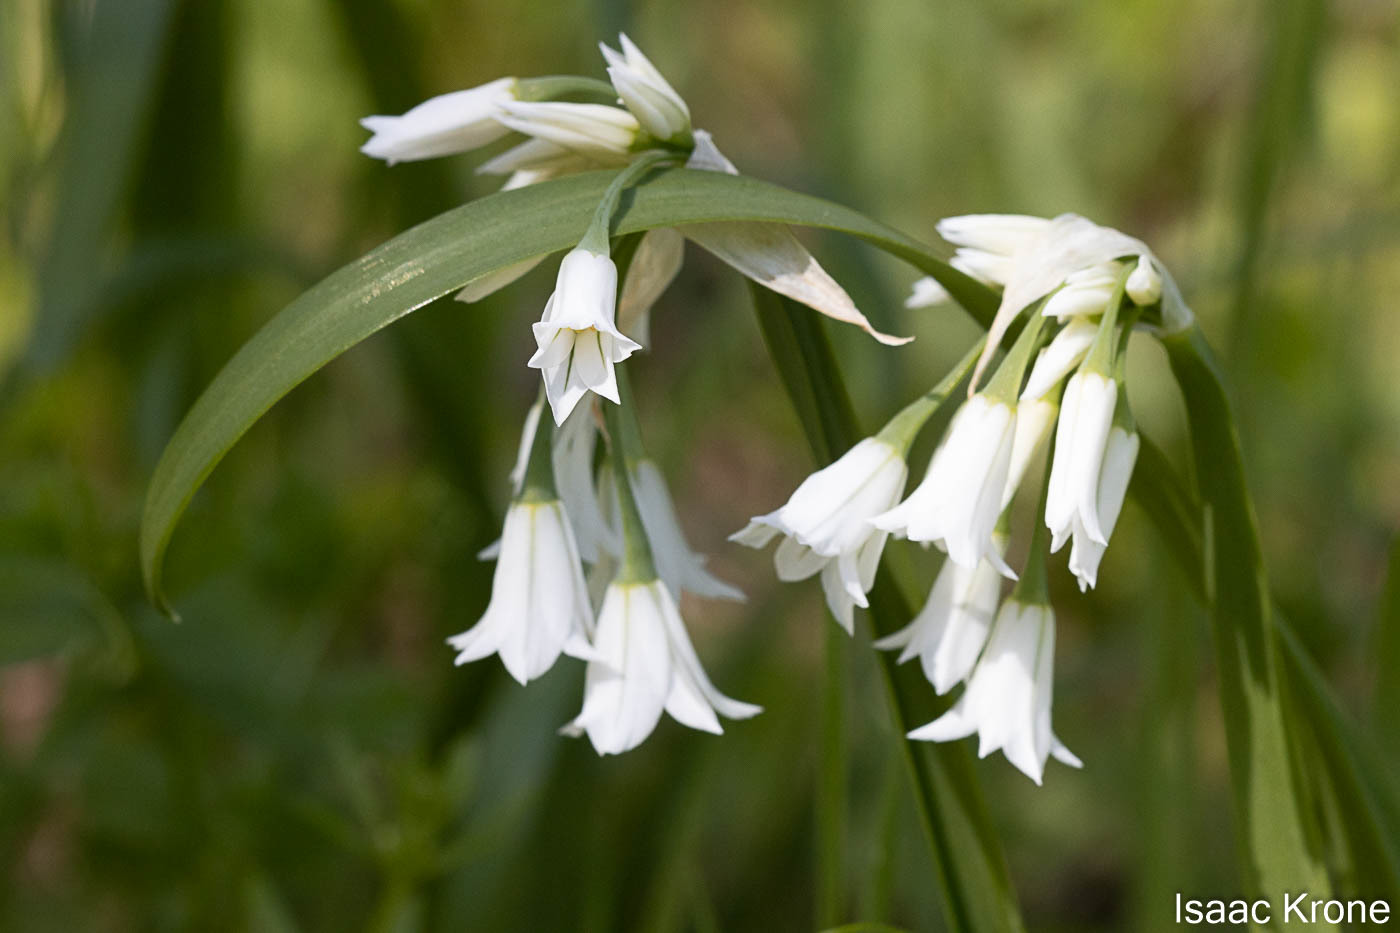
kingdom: Plantae
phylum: Tracheophyta
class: Liliopsida
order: Asparagales
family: Amaryllidaceae
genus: Allium
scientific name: Allium triquetrum
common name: Three-cornered garlic
